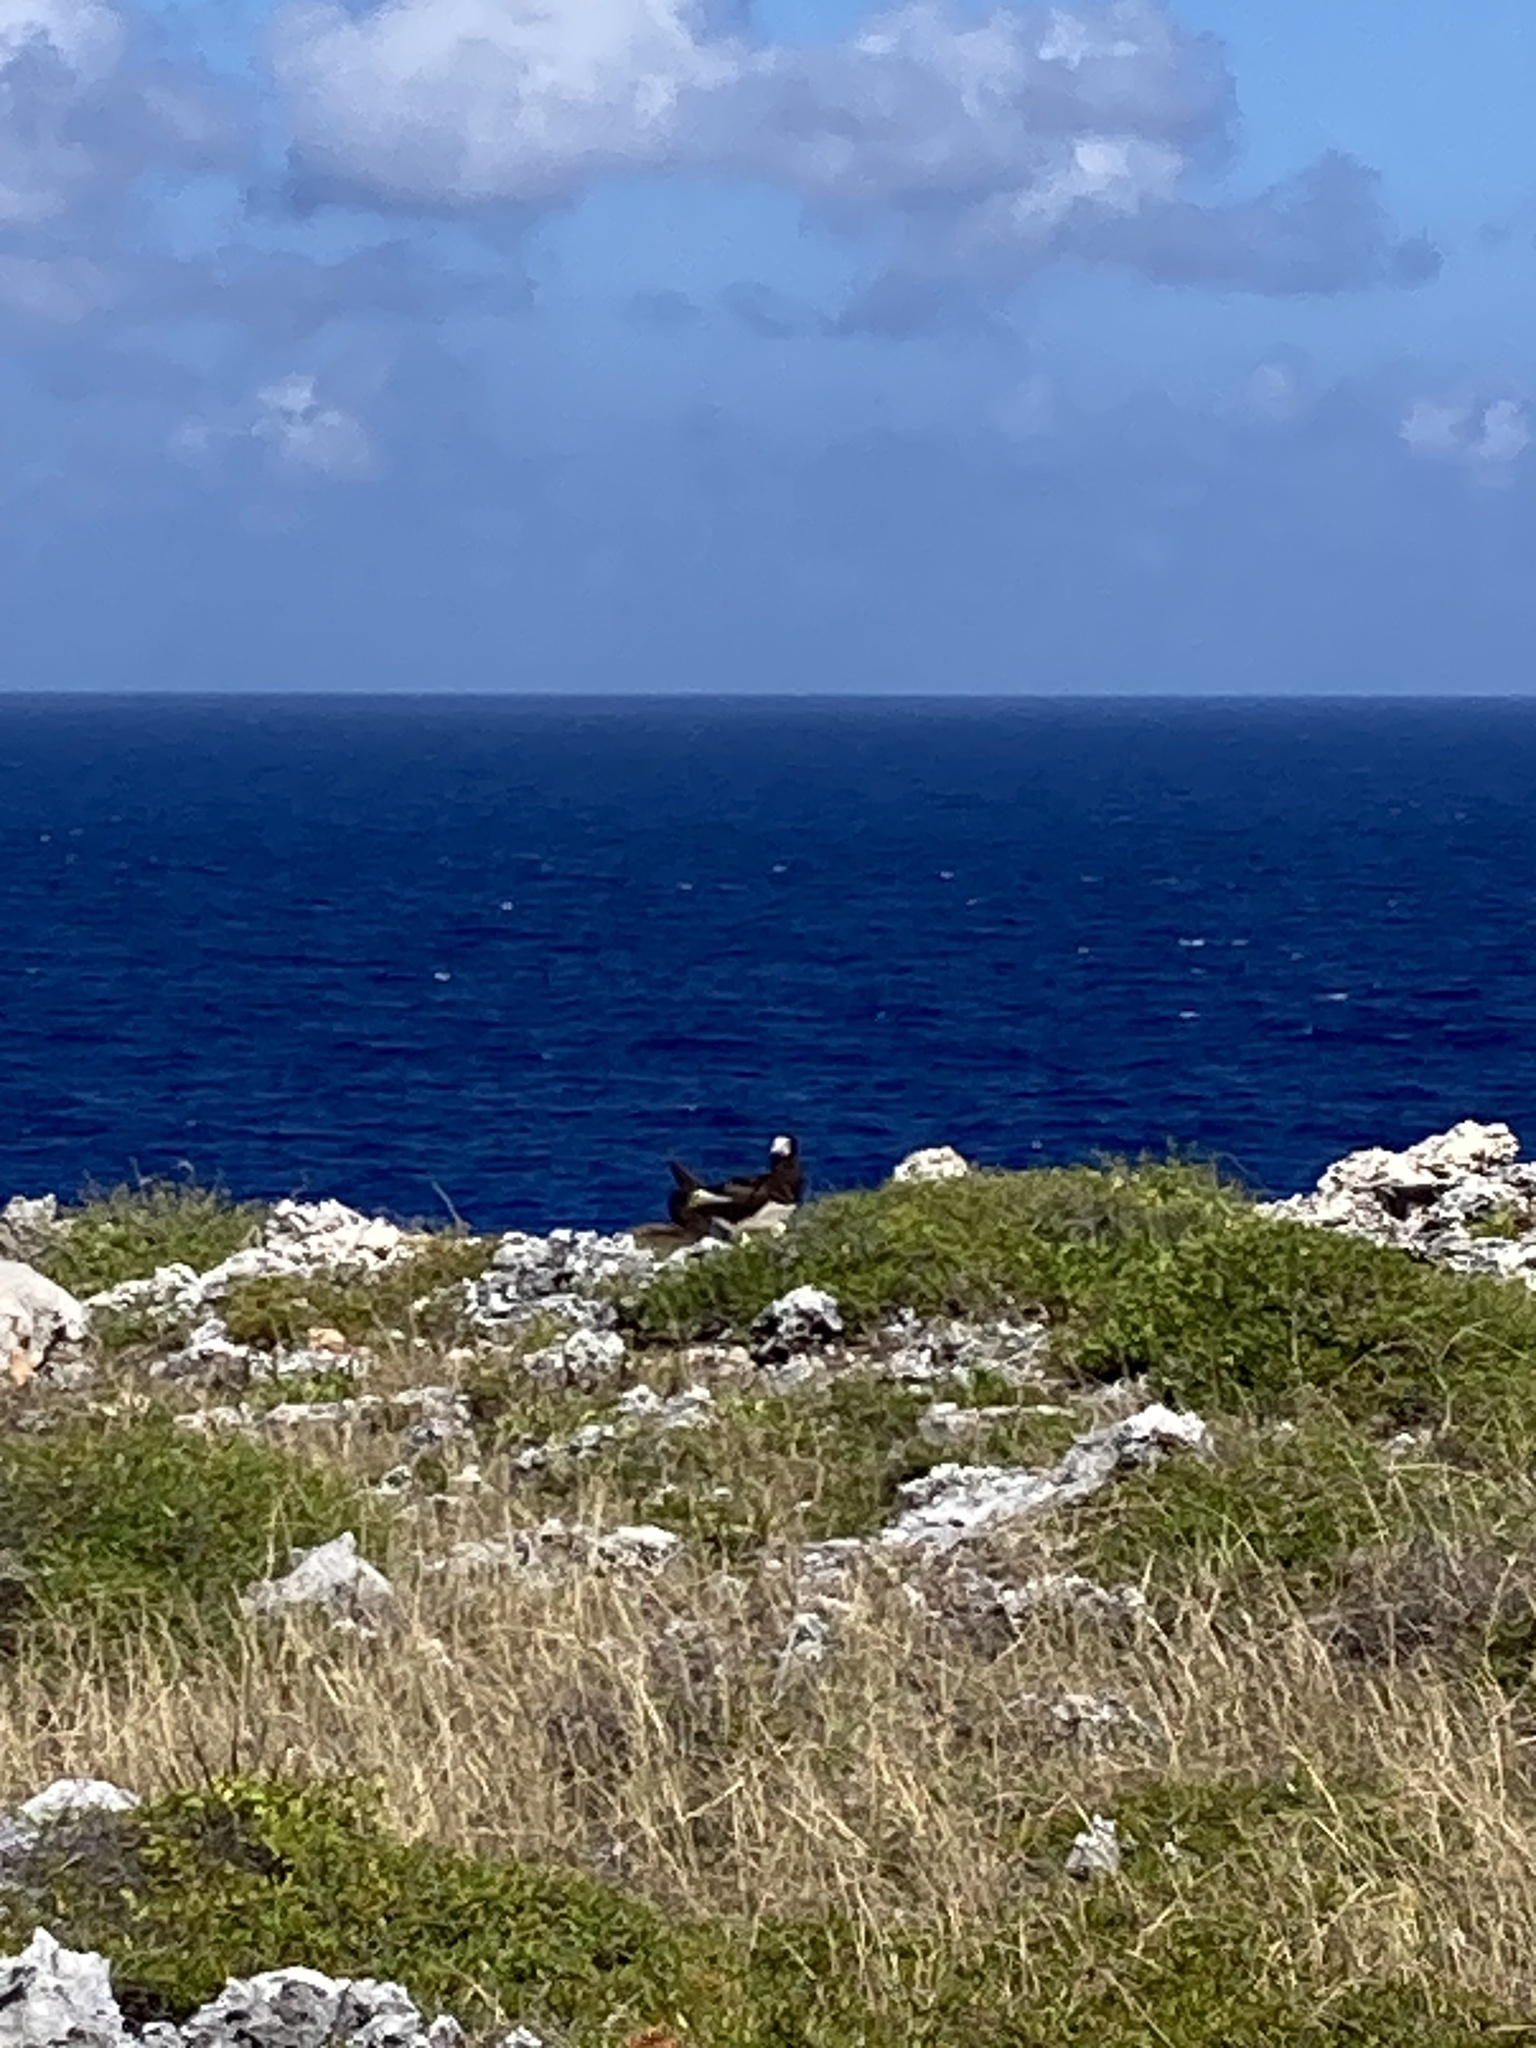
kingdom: Animalia
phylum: Chordata
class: Aves
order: Suliformes
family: Sulidae
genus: Sula
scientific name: Sula leucogaster
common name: Brown booby
